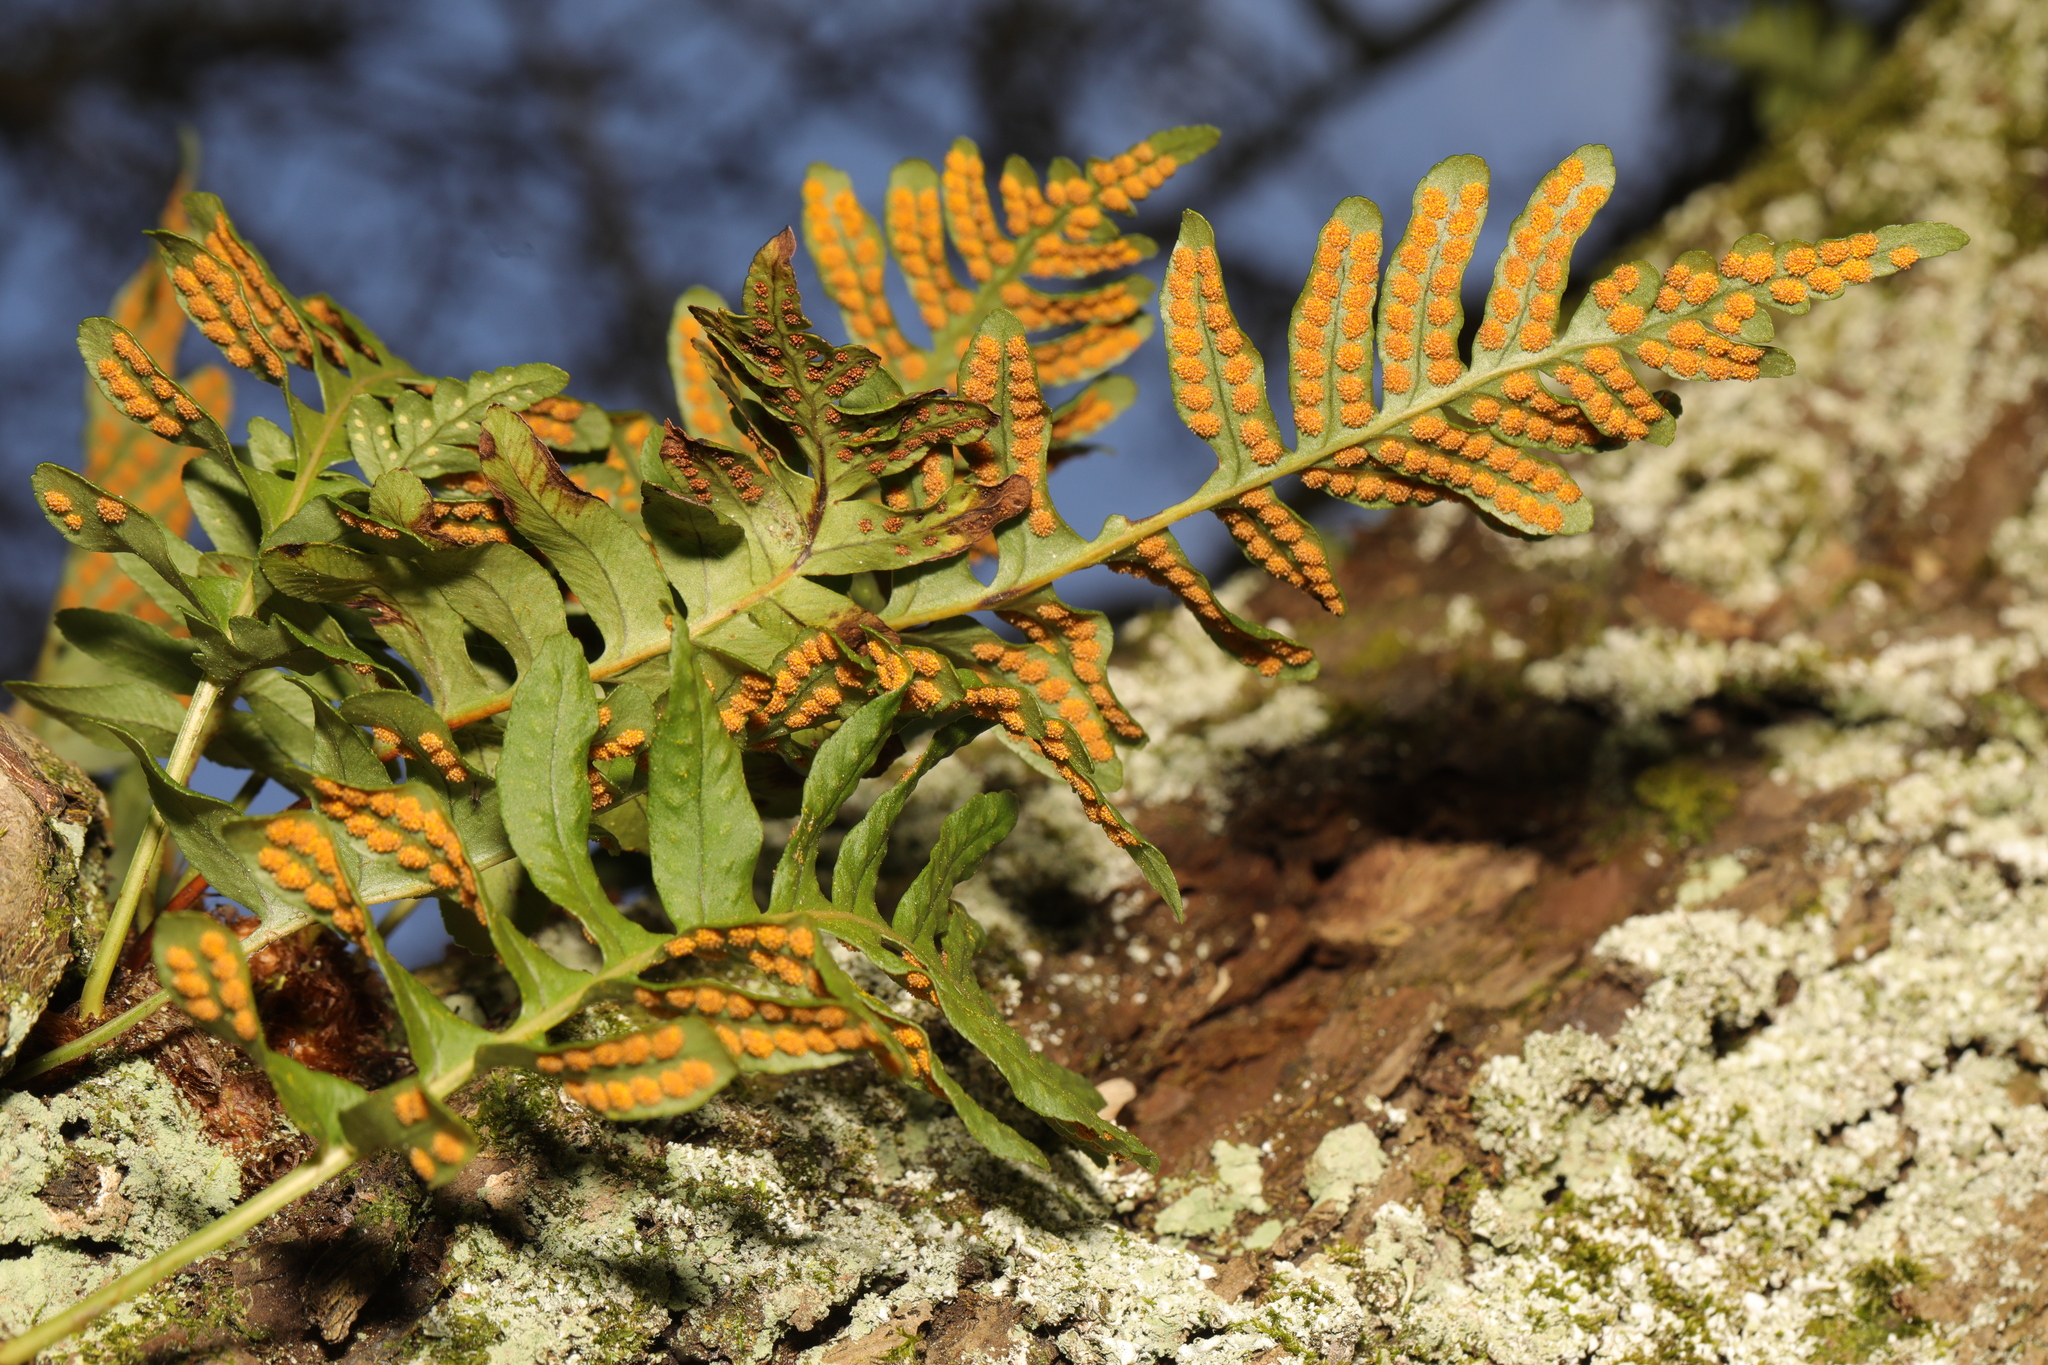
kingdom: Plantae
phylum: Tracheophyta
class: Polypodiopsida
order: Polypodiales
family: Polypodiaceae
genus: Polypodium
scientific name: Polypodium
